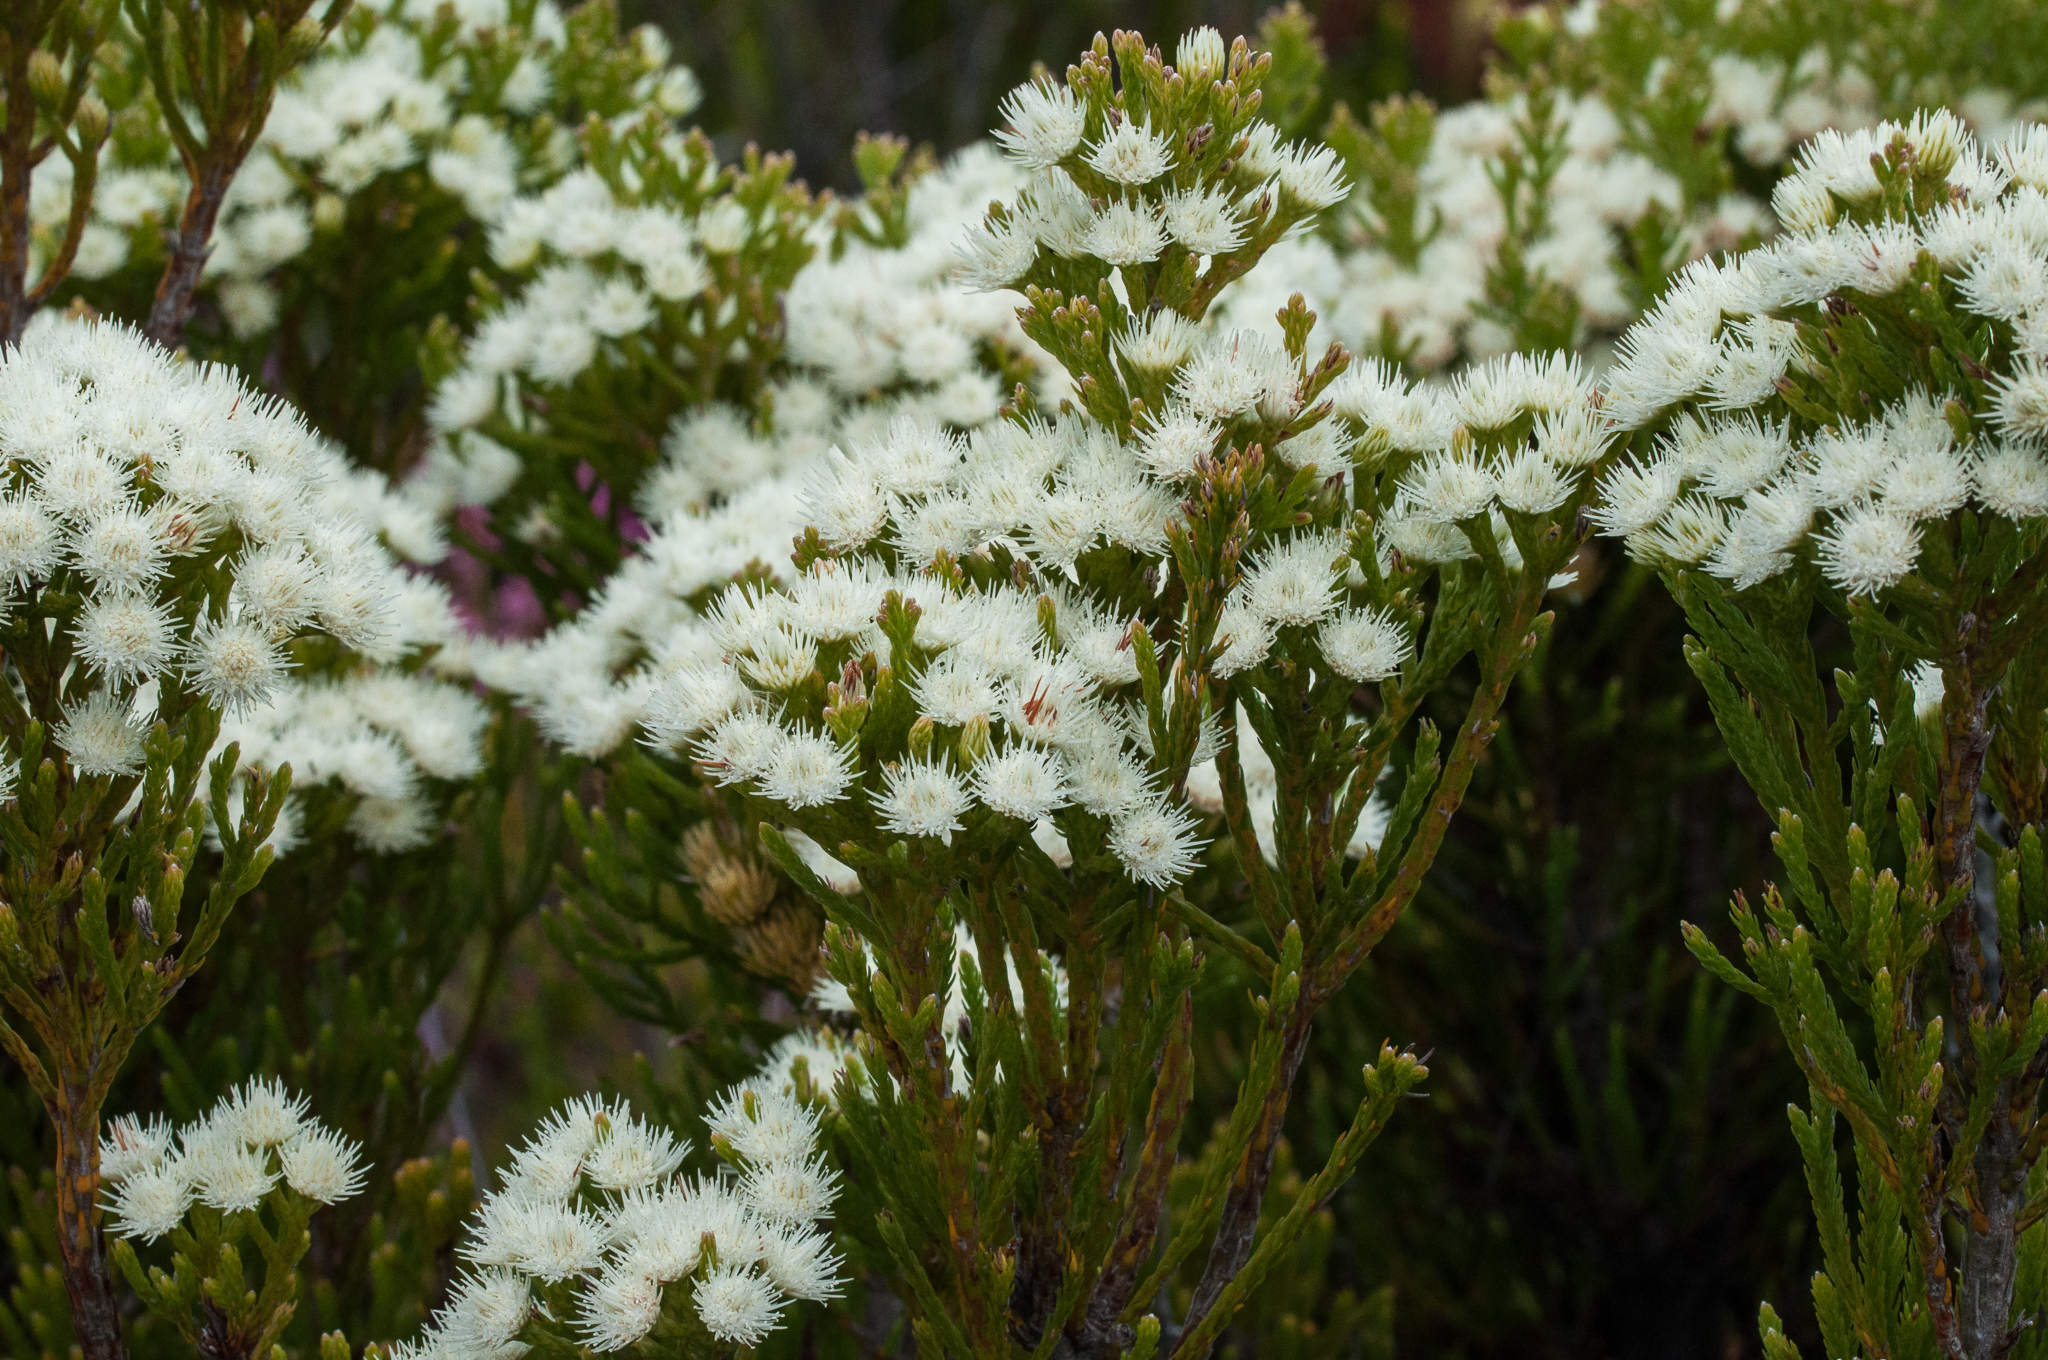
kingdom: Plantae
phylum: Tracheophyta
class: Magnoliopsida
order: Bruniales
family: Bruniaceae
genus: Brunia
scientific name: Brunia paleacea
